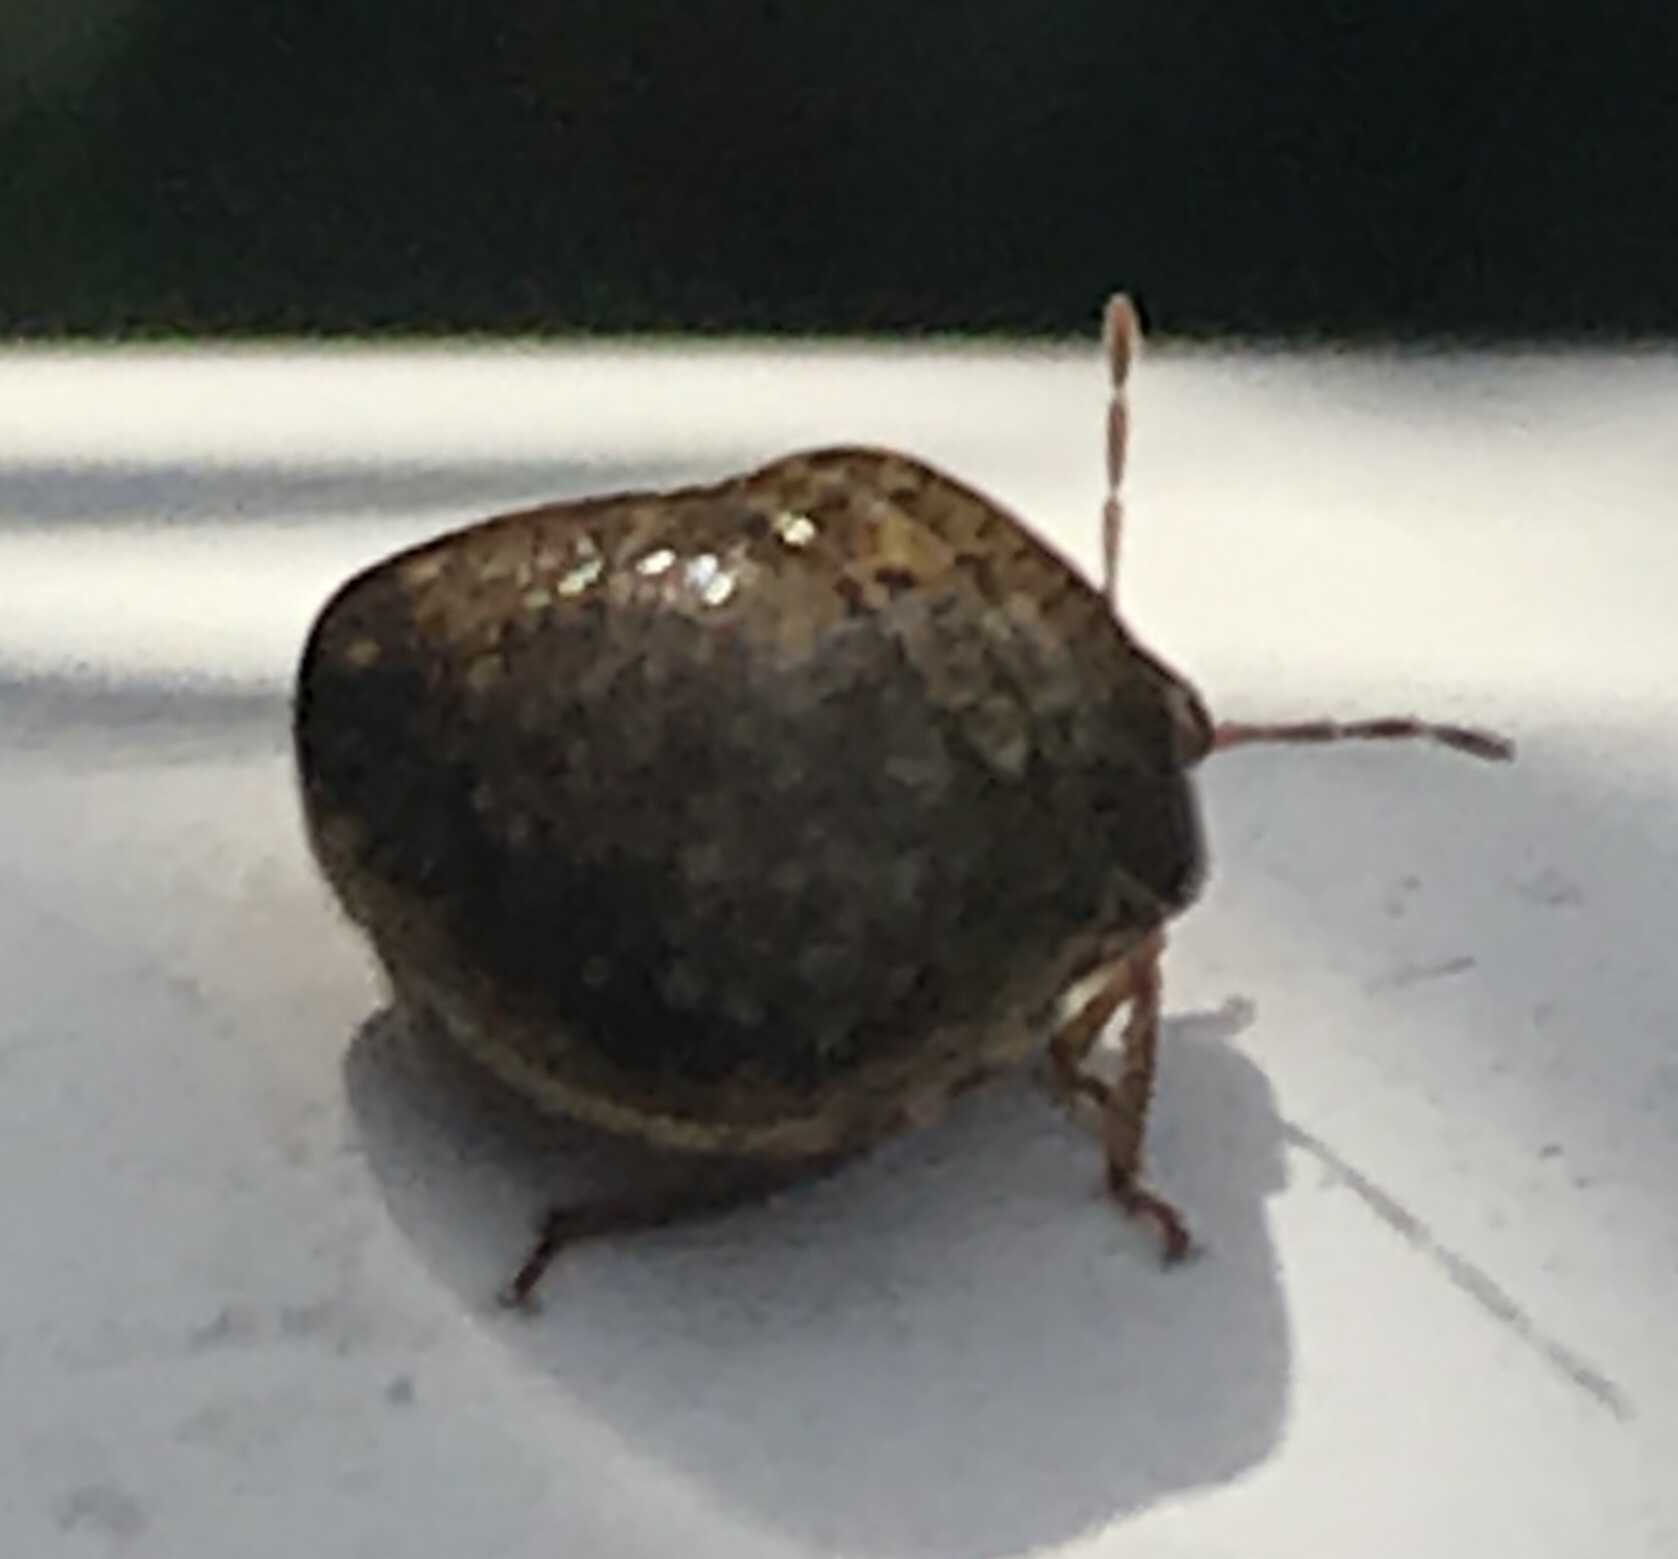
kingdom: Animalia
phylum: Arthropoda
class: Insecta
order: Hemiptera
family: Plataspidae
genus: Megacopta
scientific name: Megacopta cribraria
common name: Bean plataspid
